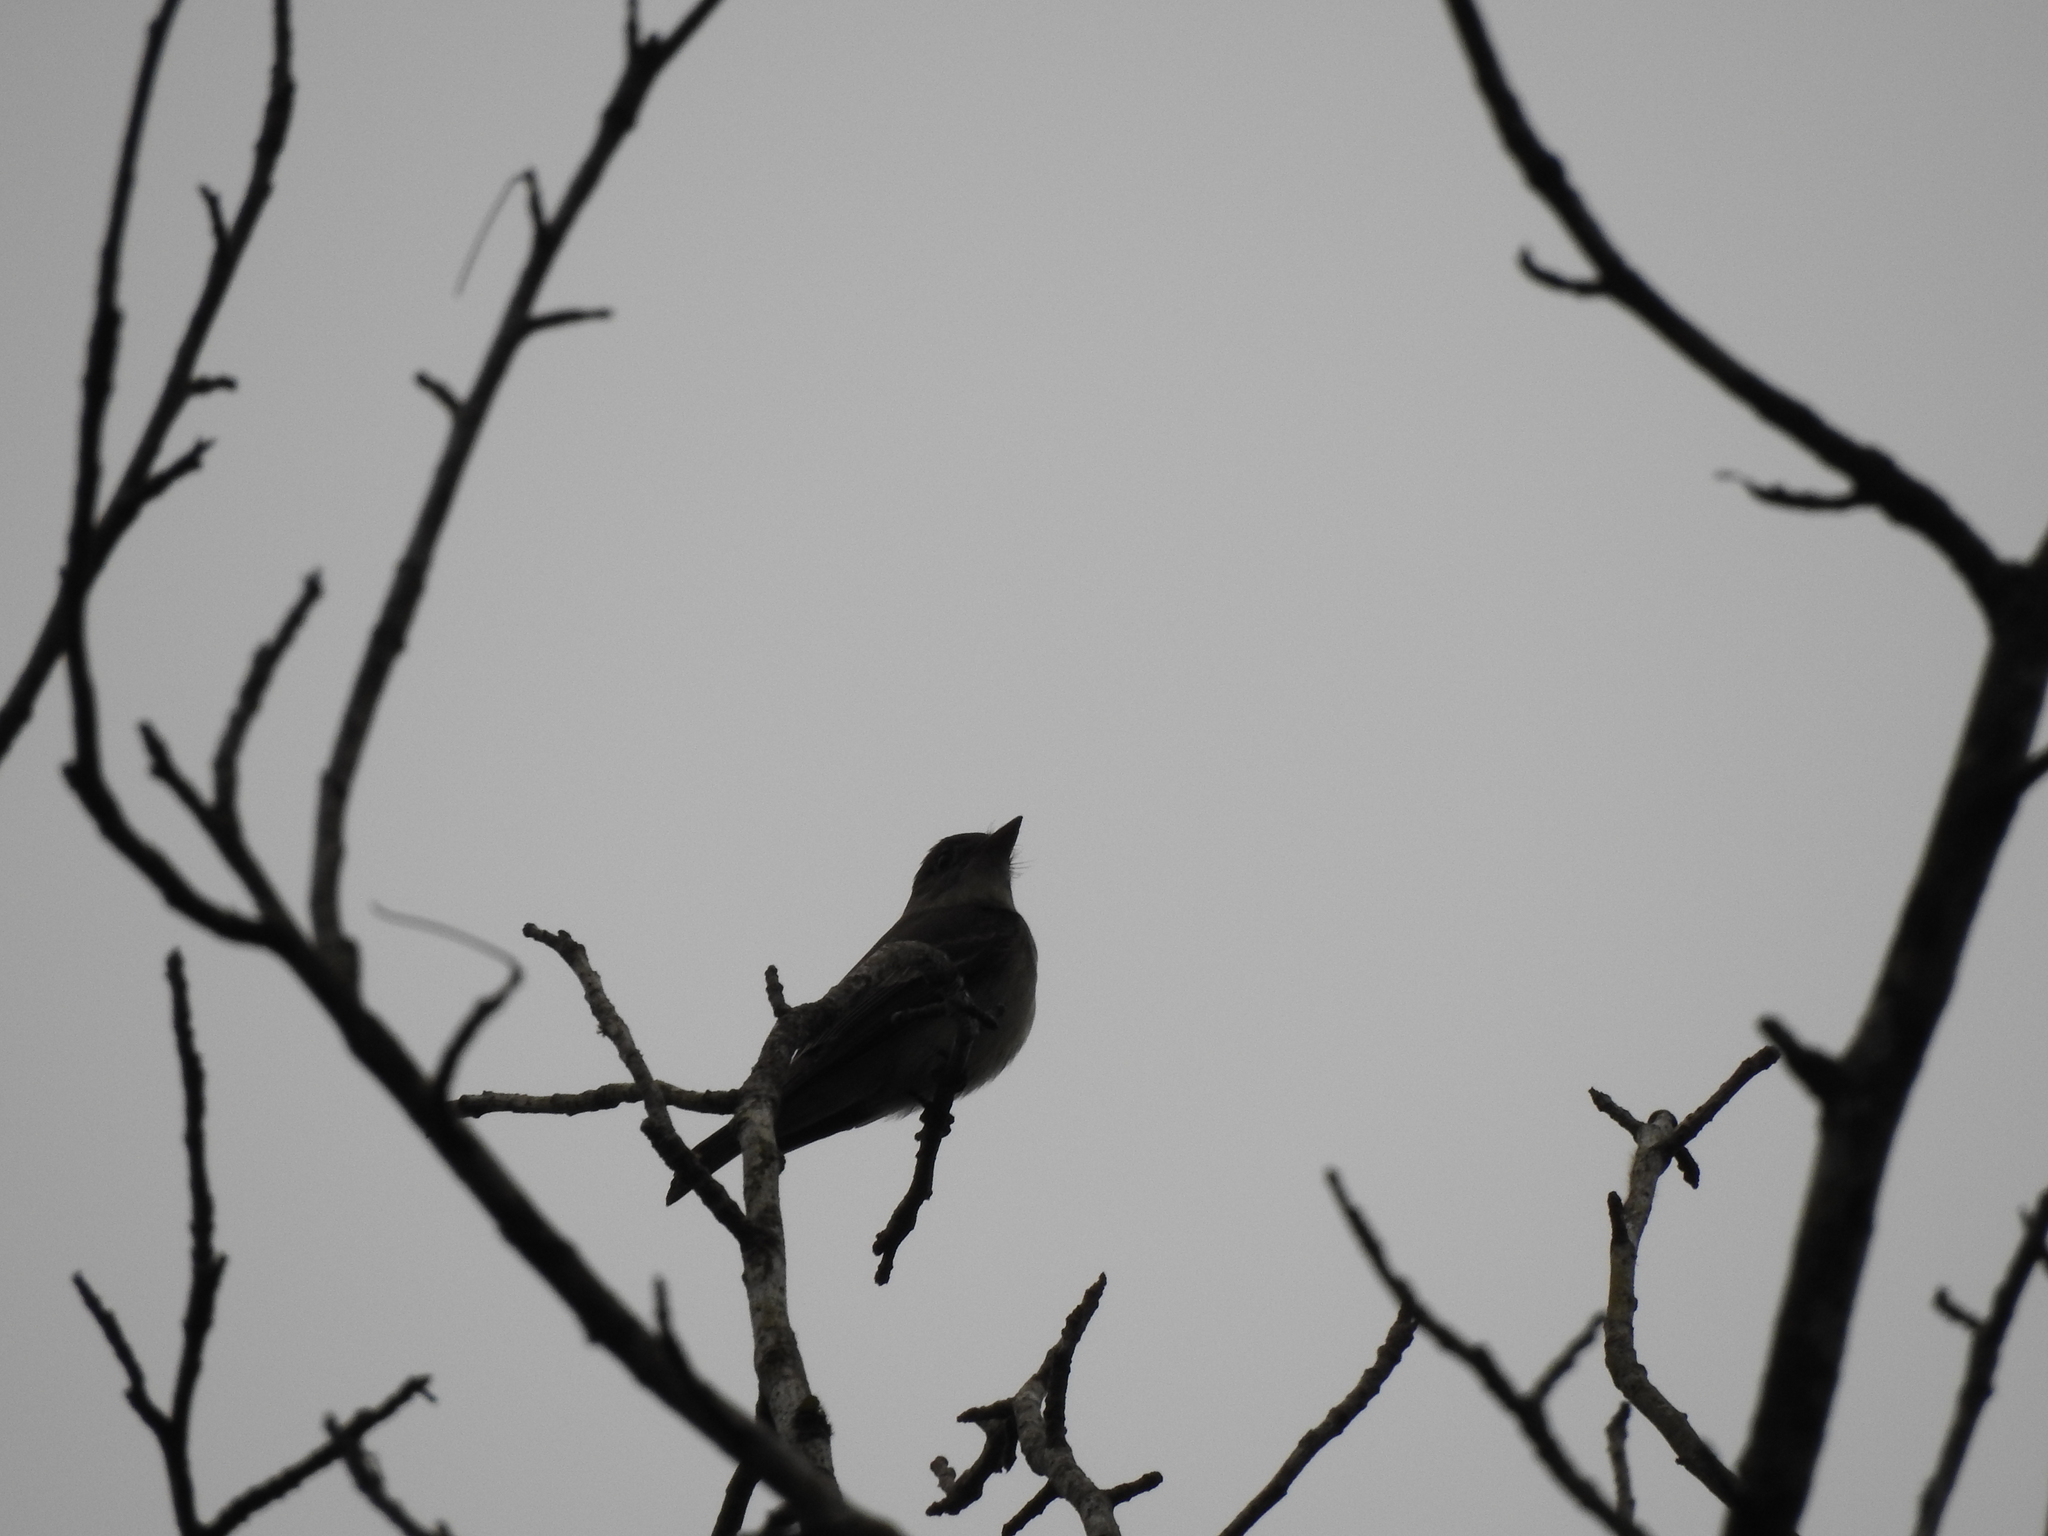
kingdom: Animalia
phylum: Chordata
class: Aves
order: Passeriformes
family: Tyrannidae
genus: Contopus
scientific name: Contopus virens
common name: Eastern wood-pewee
